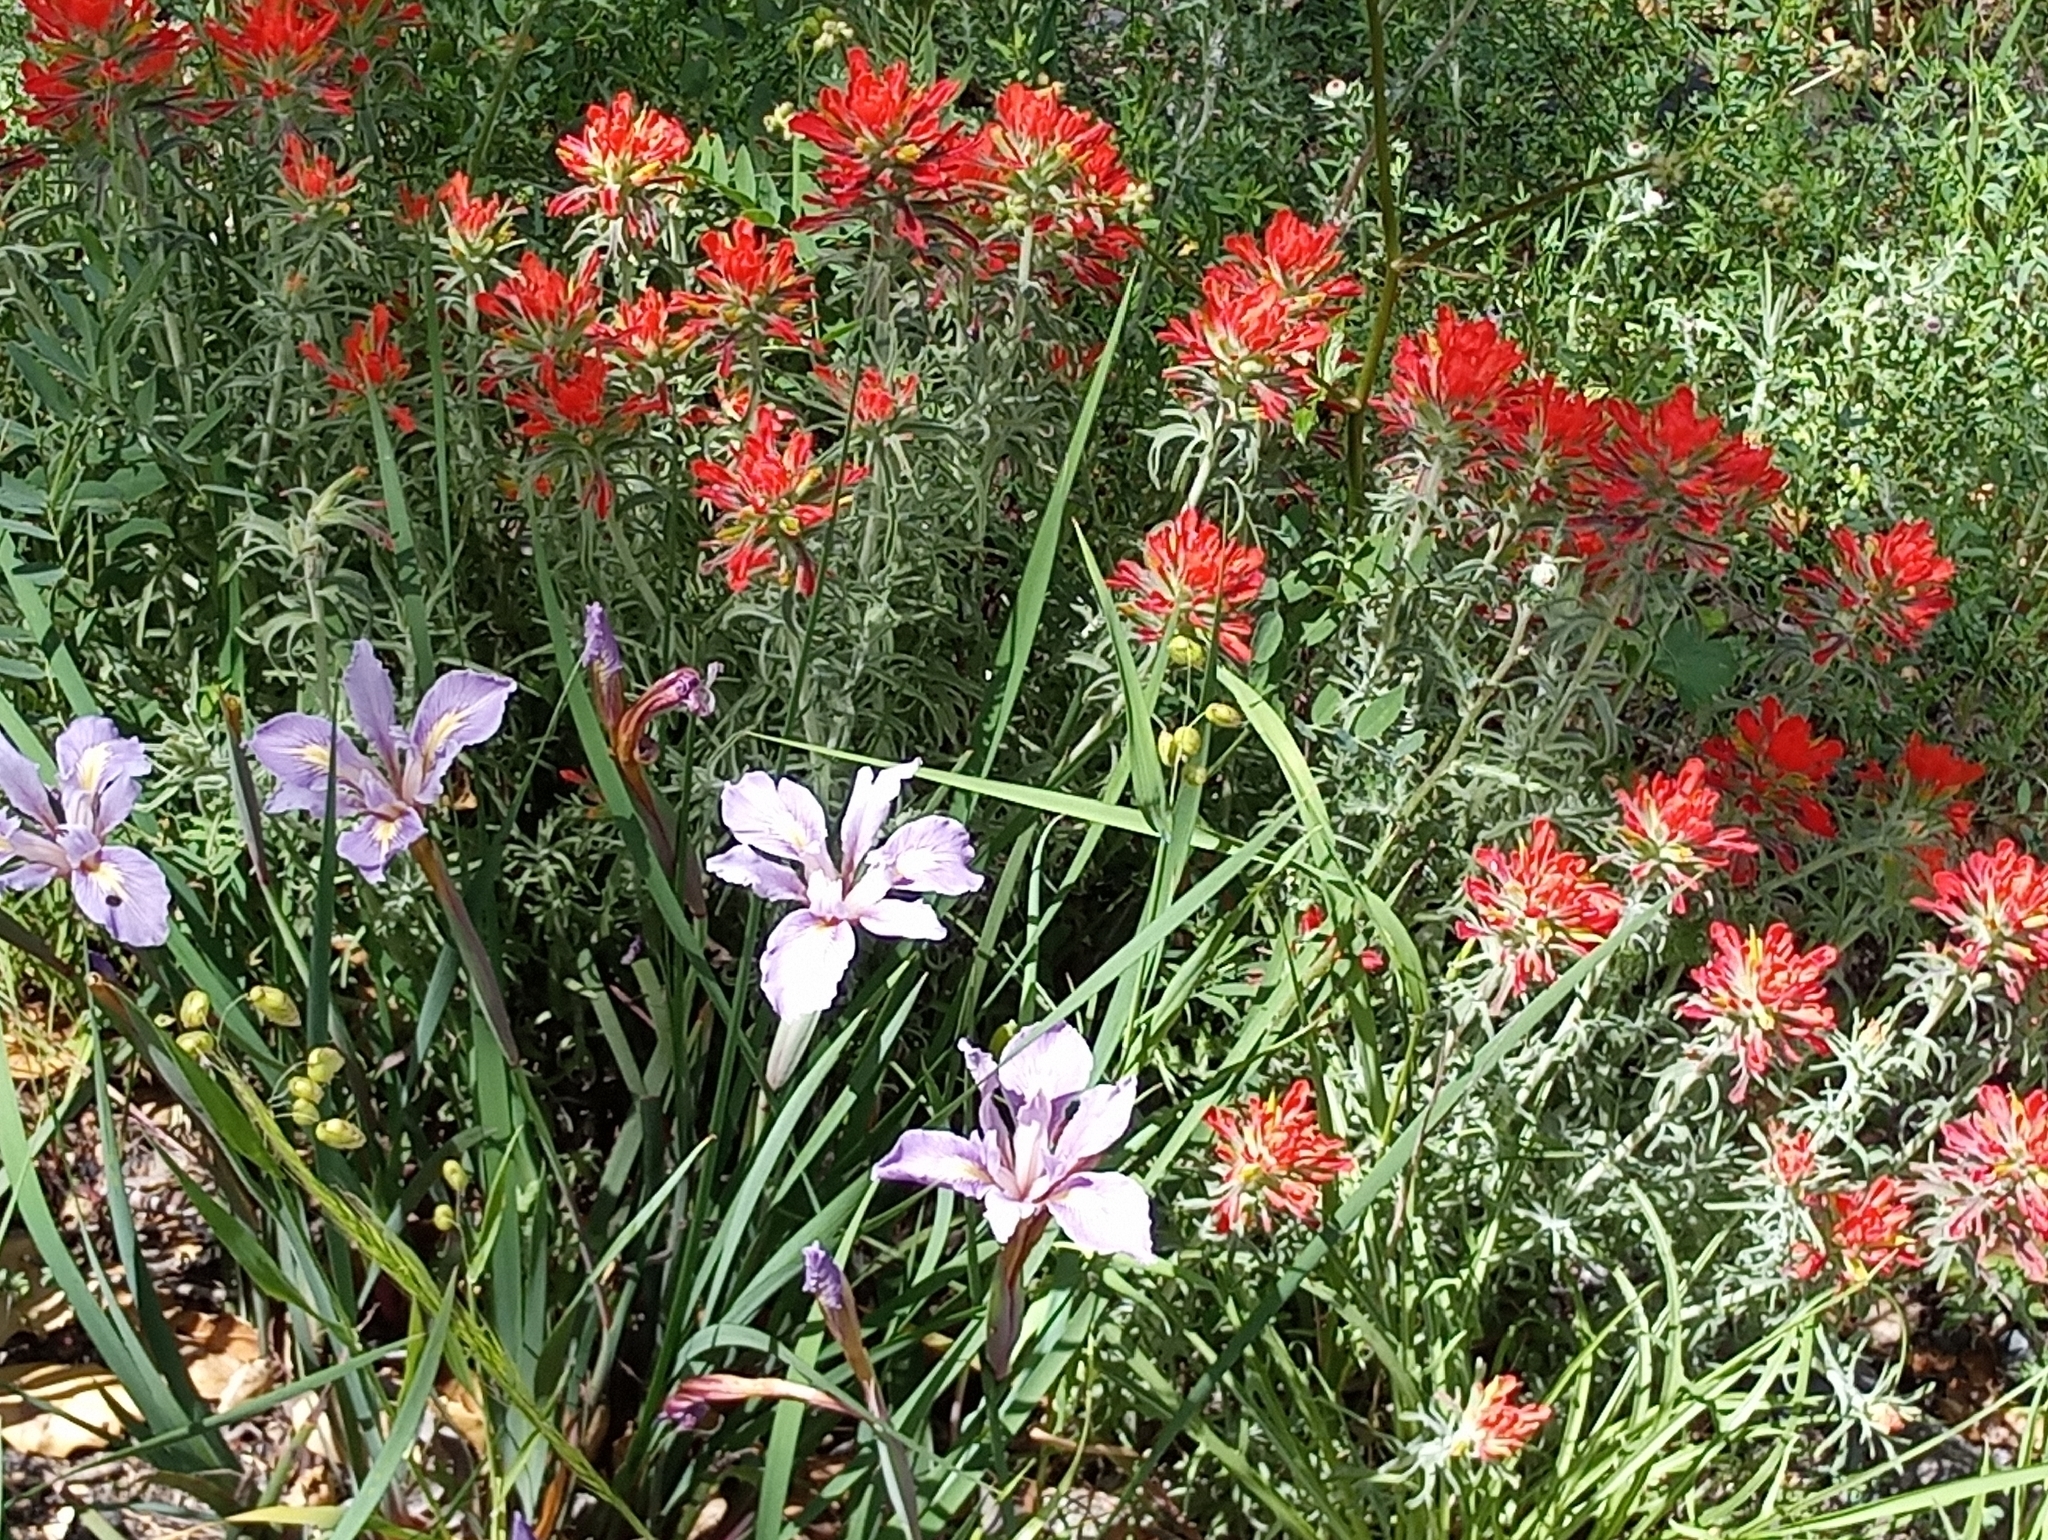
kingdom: Plantae
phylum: Tracheophyta
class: Magnoliopsida
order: Lamiales
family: Orobanchaceae
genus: Castilleja
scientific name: Castilleja foliolosa
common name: Woolly indian paintbrush
